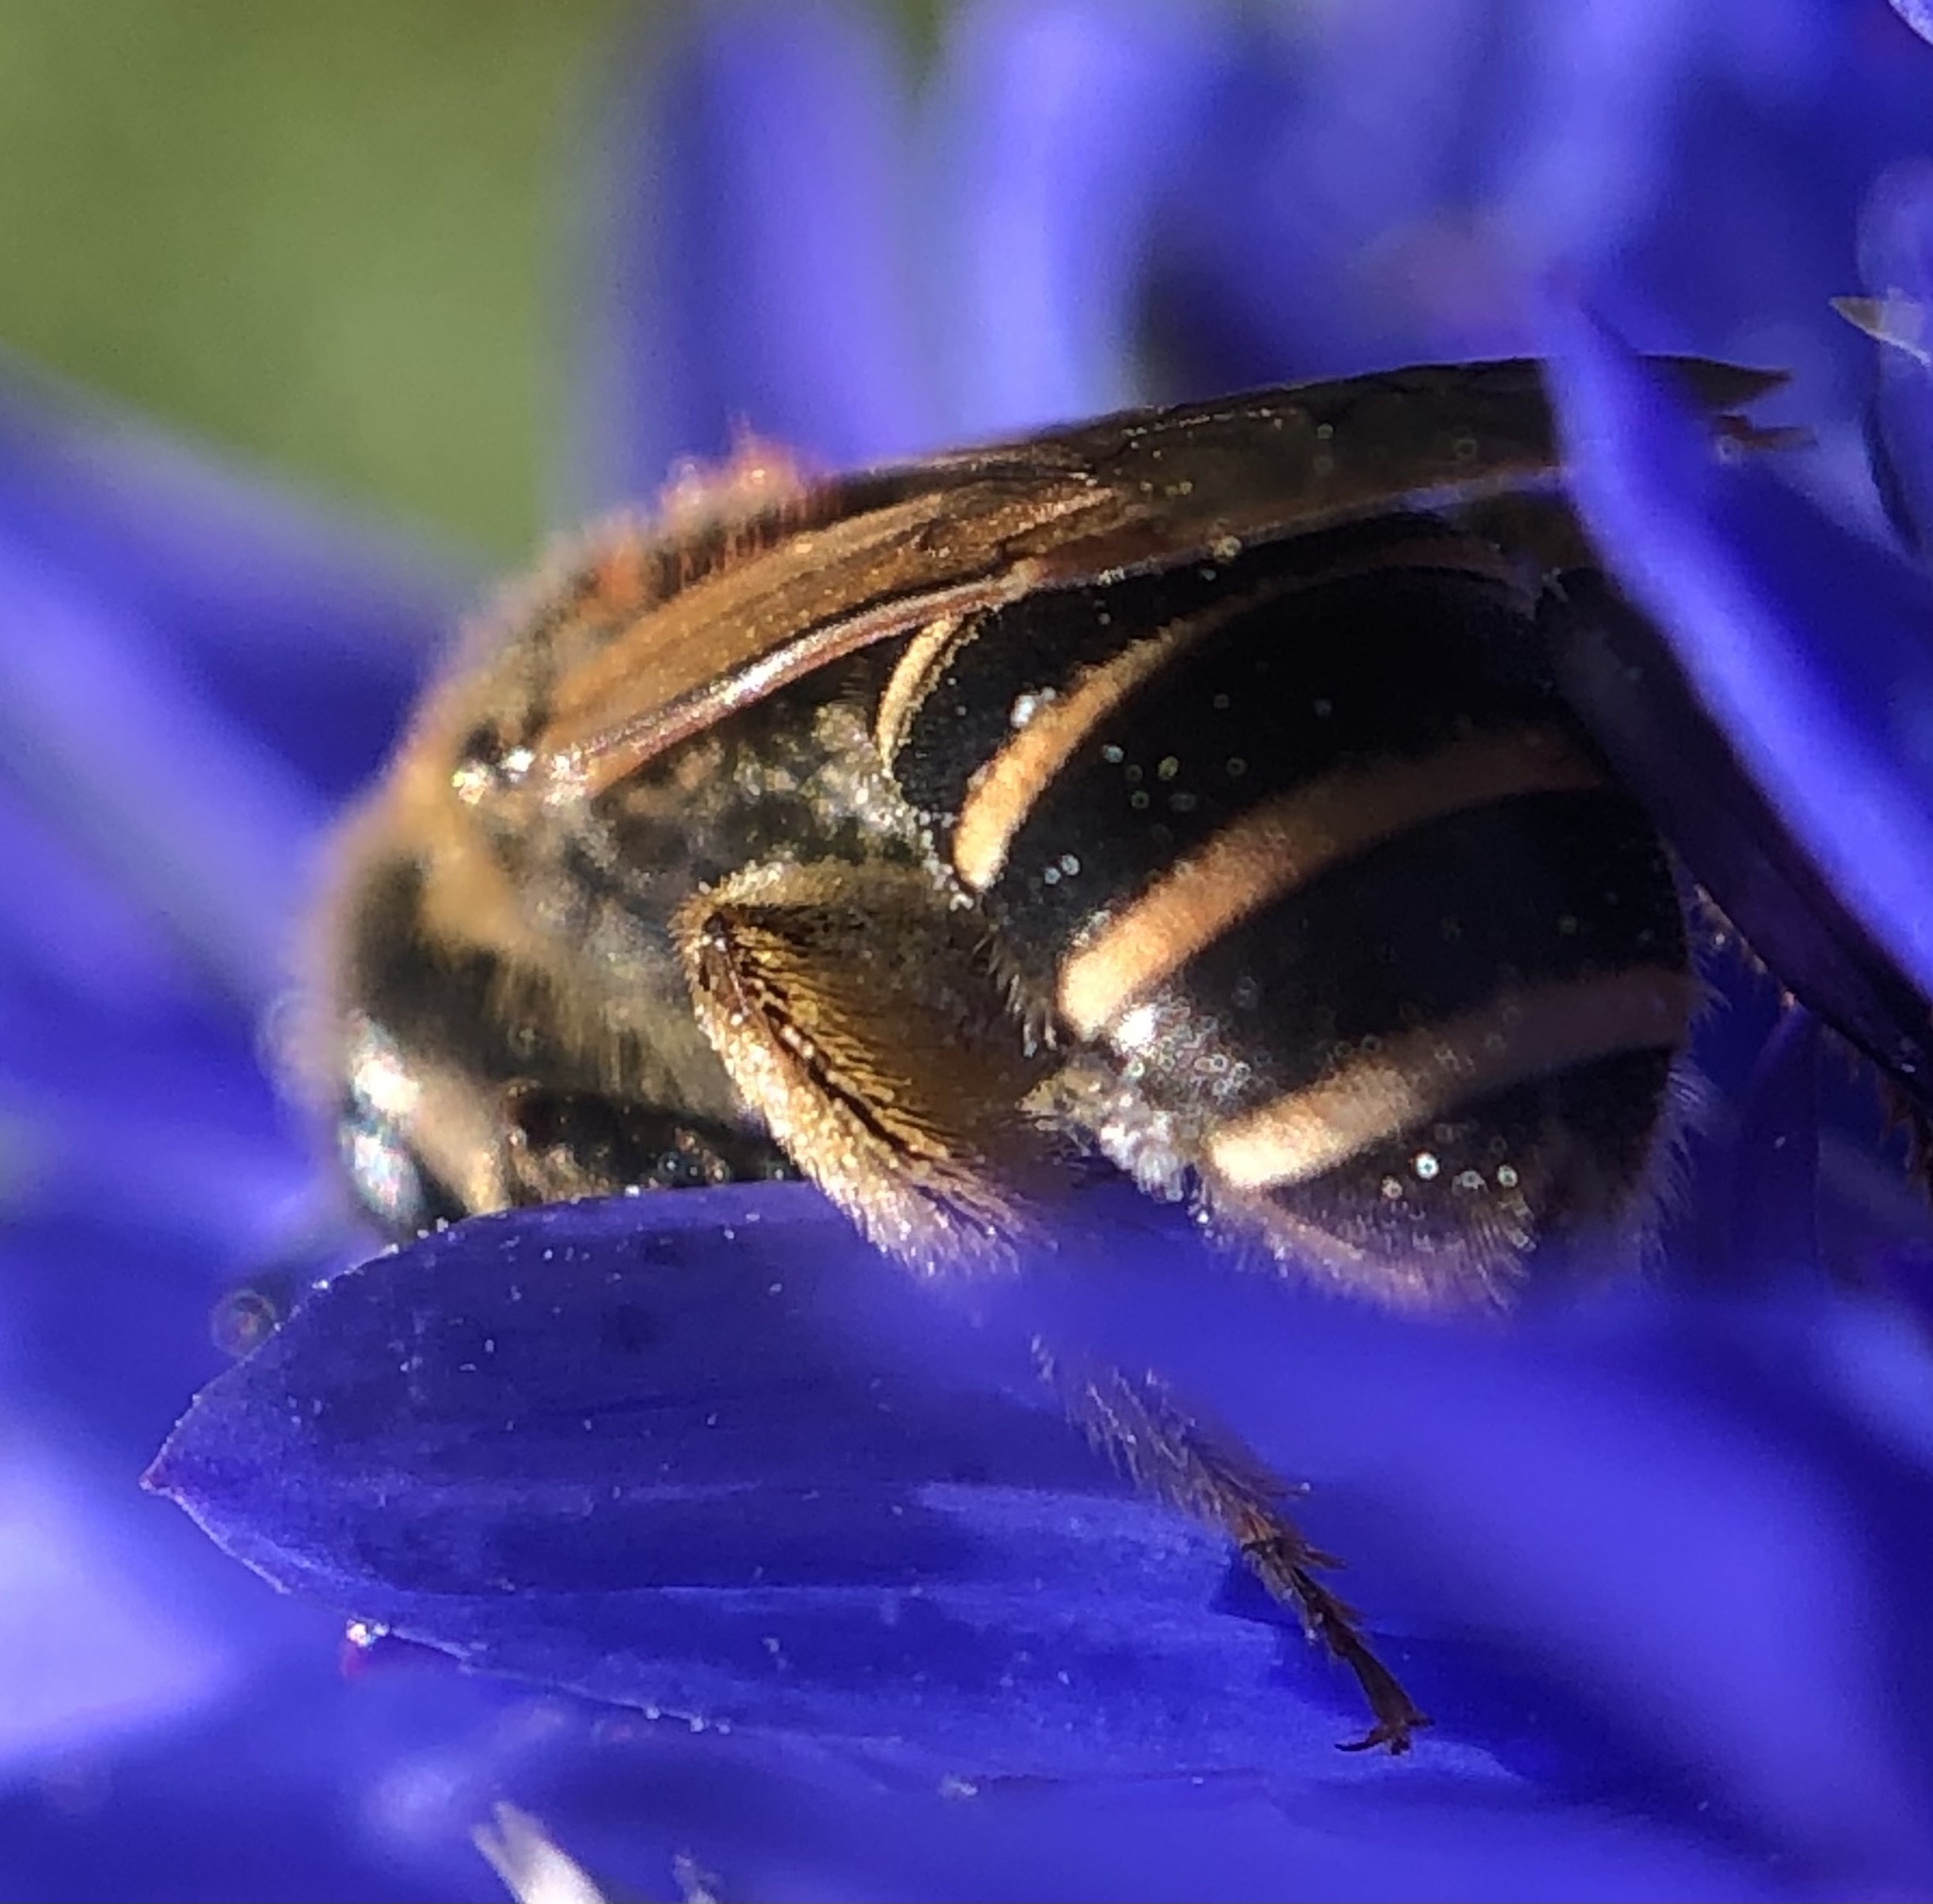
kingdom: Animalia
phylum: Arthropoda
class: Insecta
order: Hymenoptera
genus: Odontalictus
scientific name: Odontalictus
